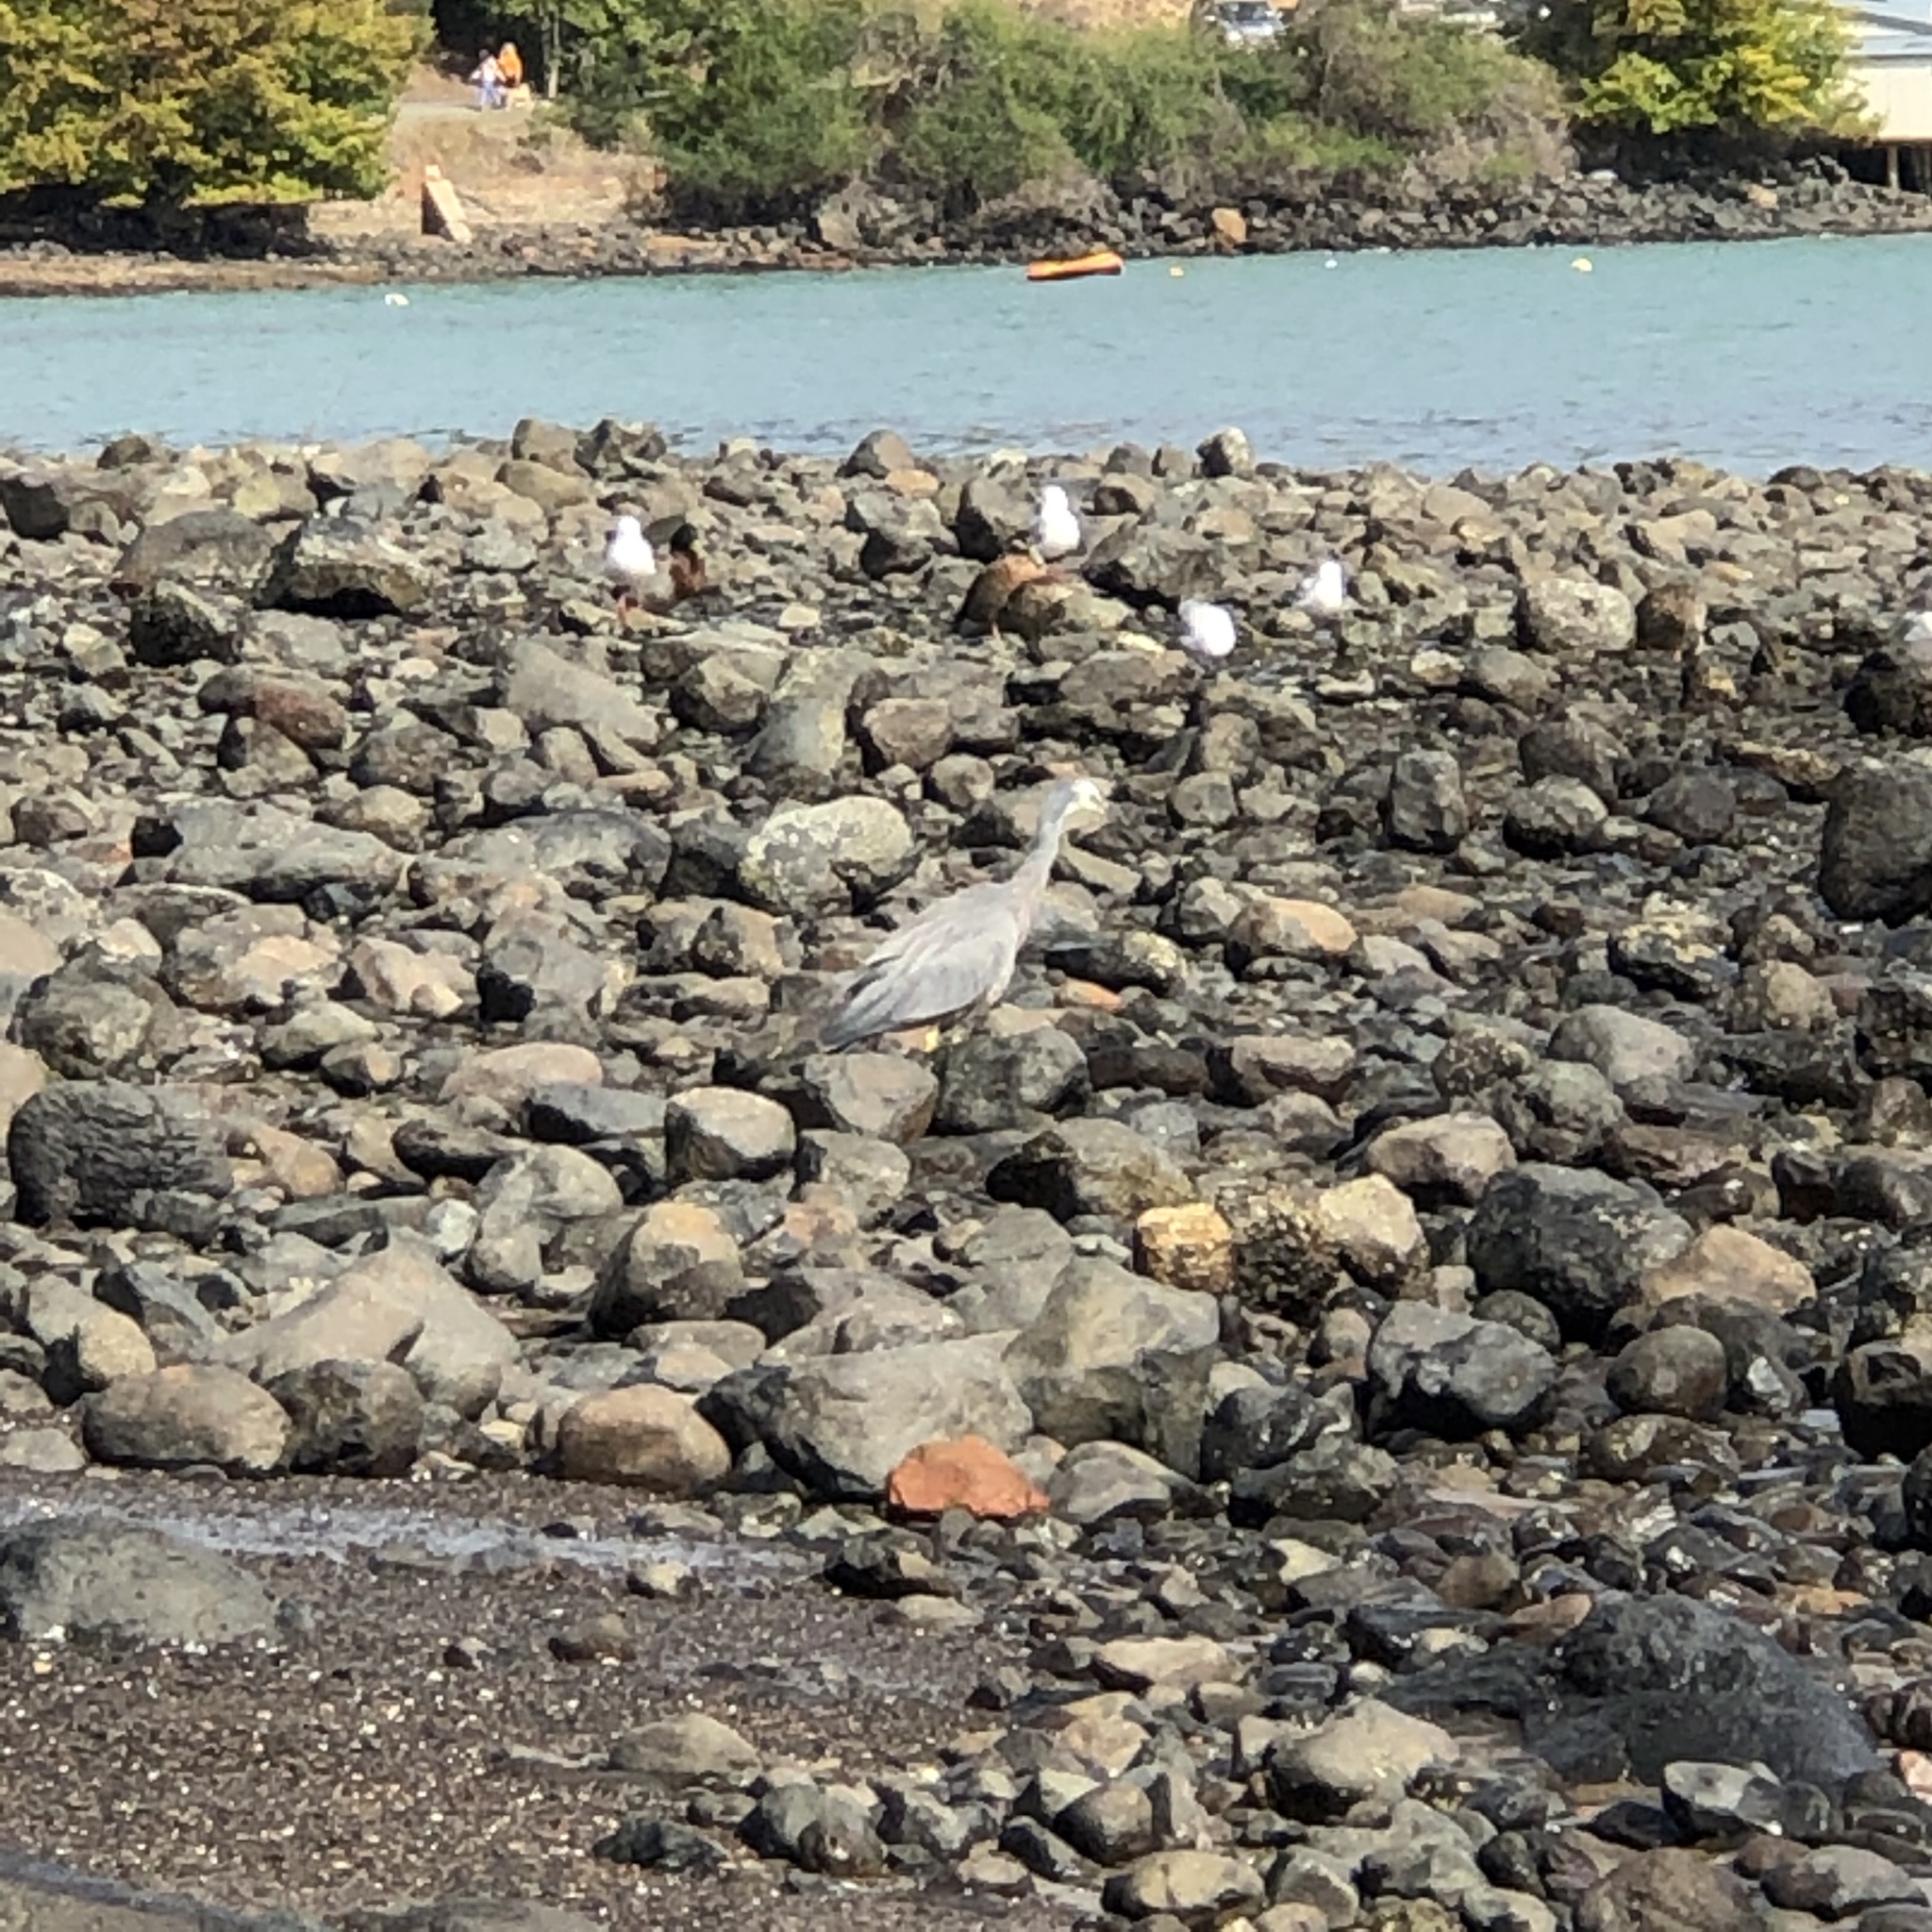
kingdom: Animalia
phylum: Chordata
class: Aves
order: Pelecaniformes
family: Ardeidae
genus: Egretta
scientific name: Egretta novaehollandiae
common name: White-faced heron
